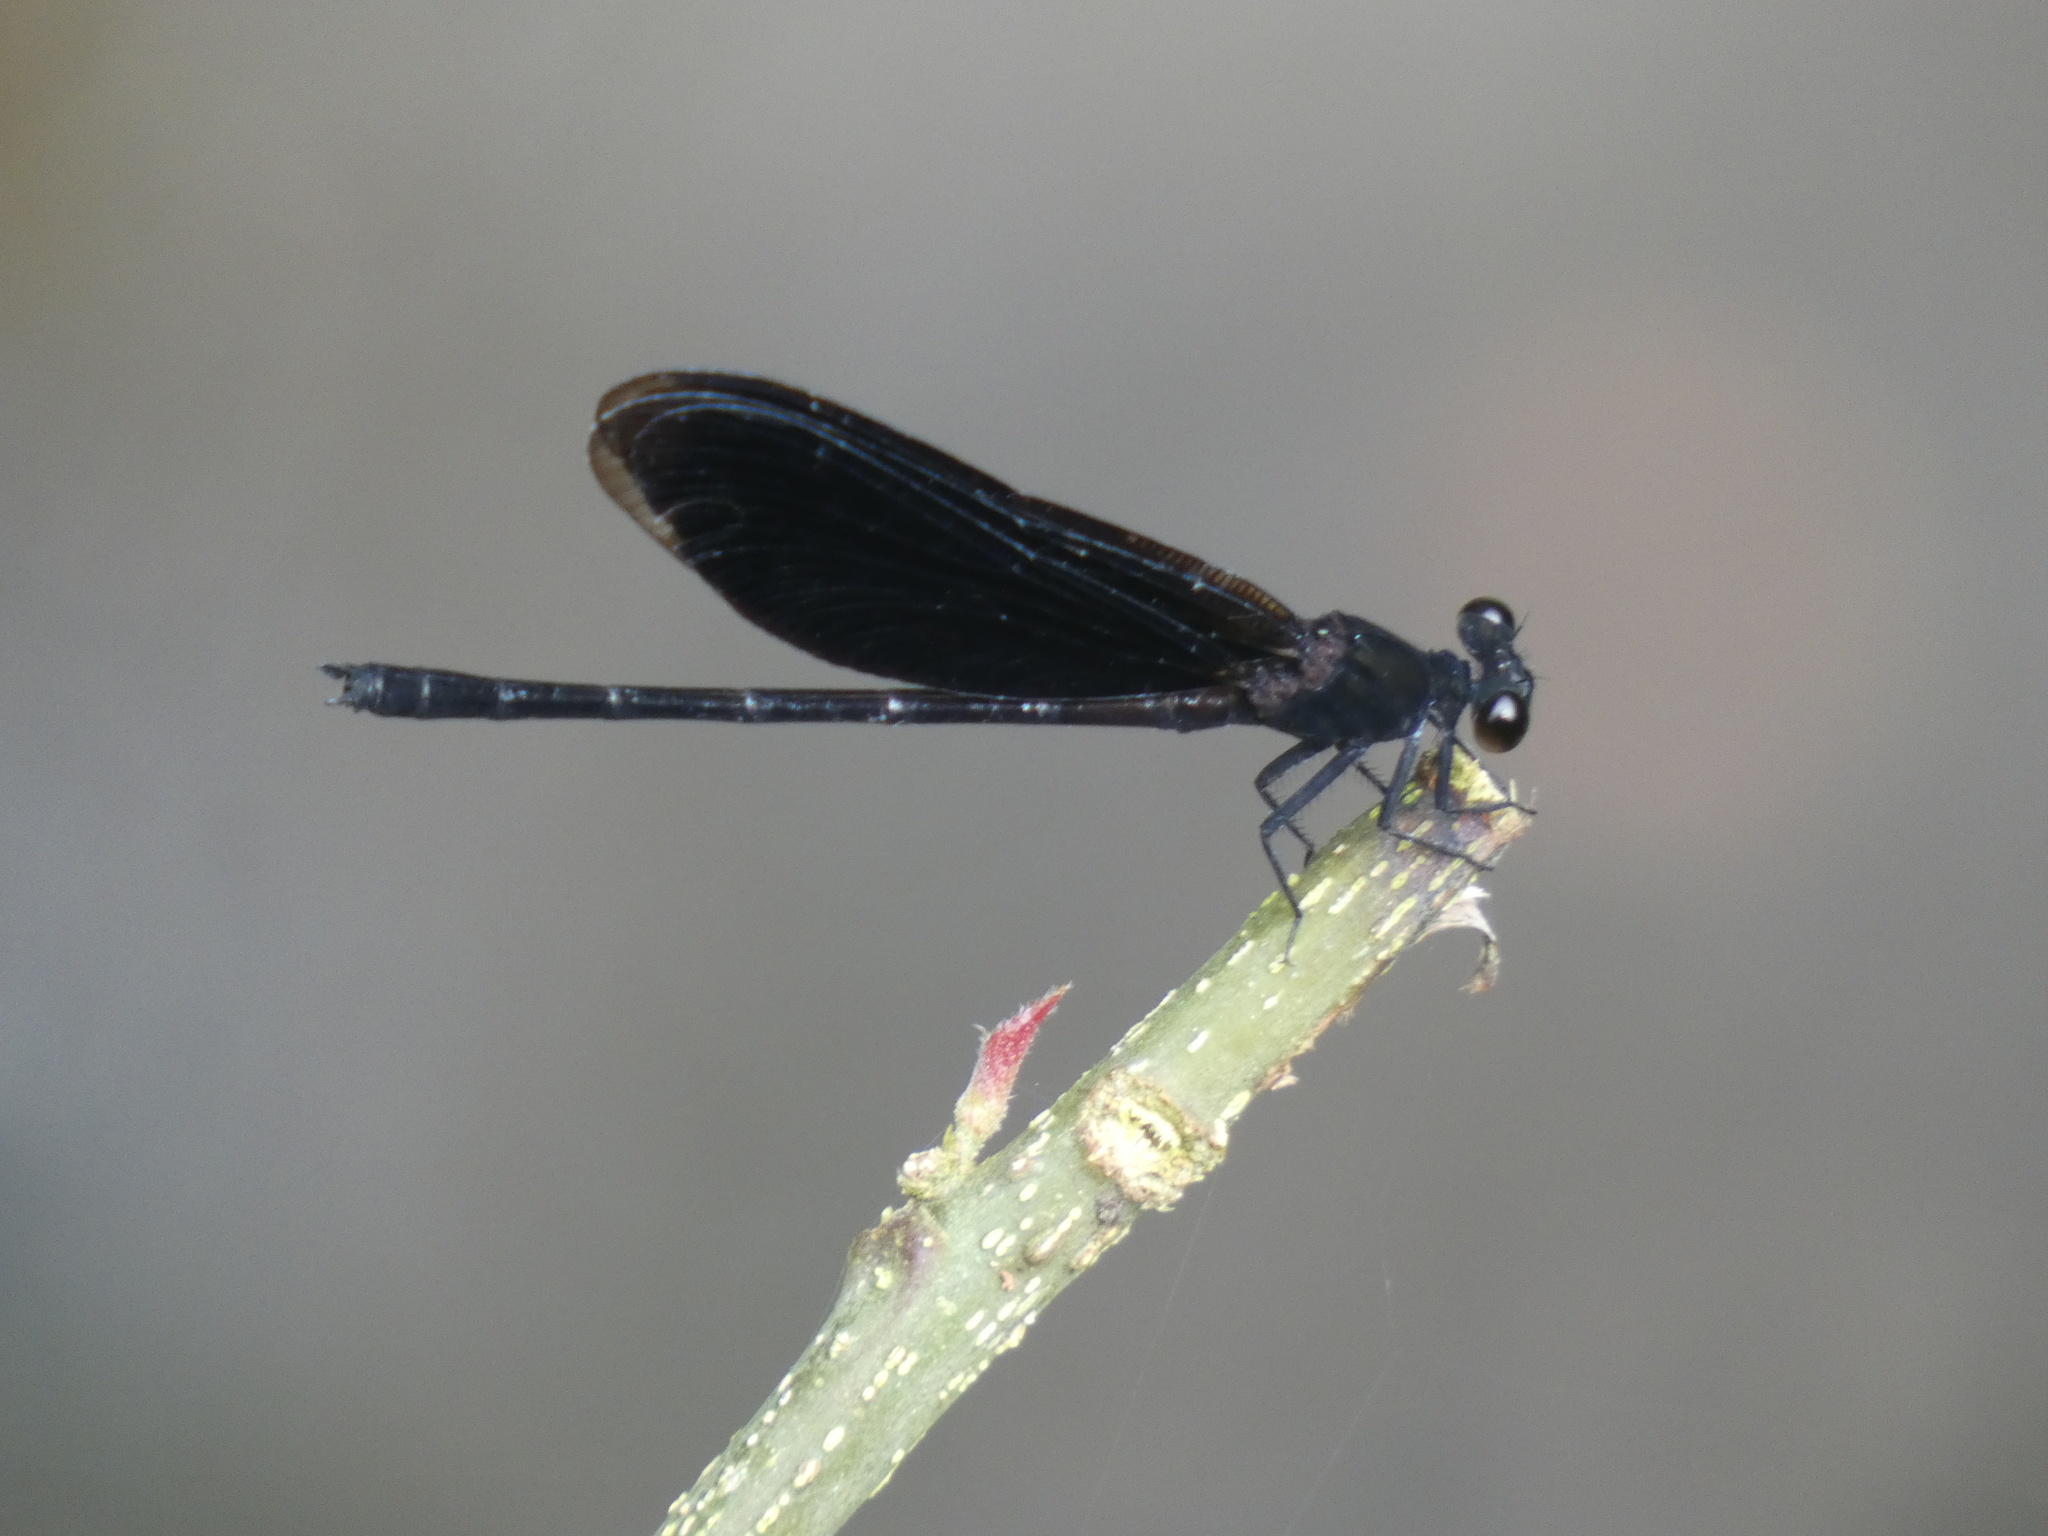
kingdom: Animalia
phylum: Arthropoda
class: Insecta
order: Odonata
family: Euphaeidae
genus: Euphaea
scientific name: Euphaea refulgens
